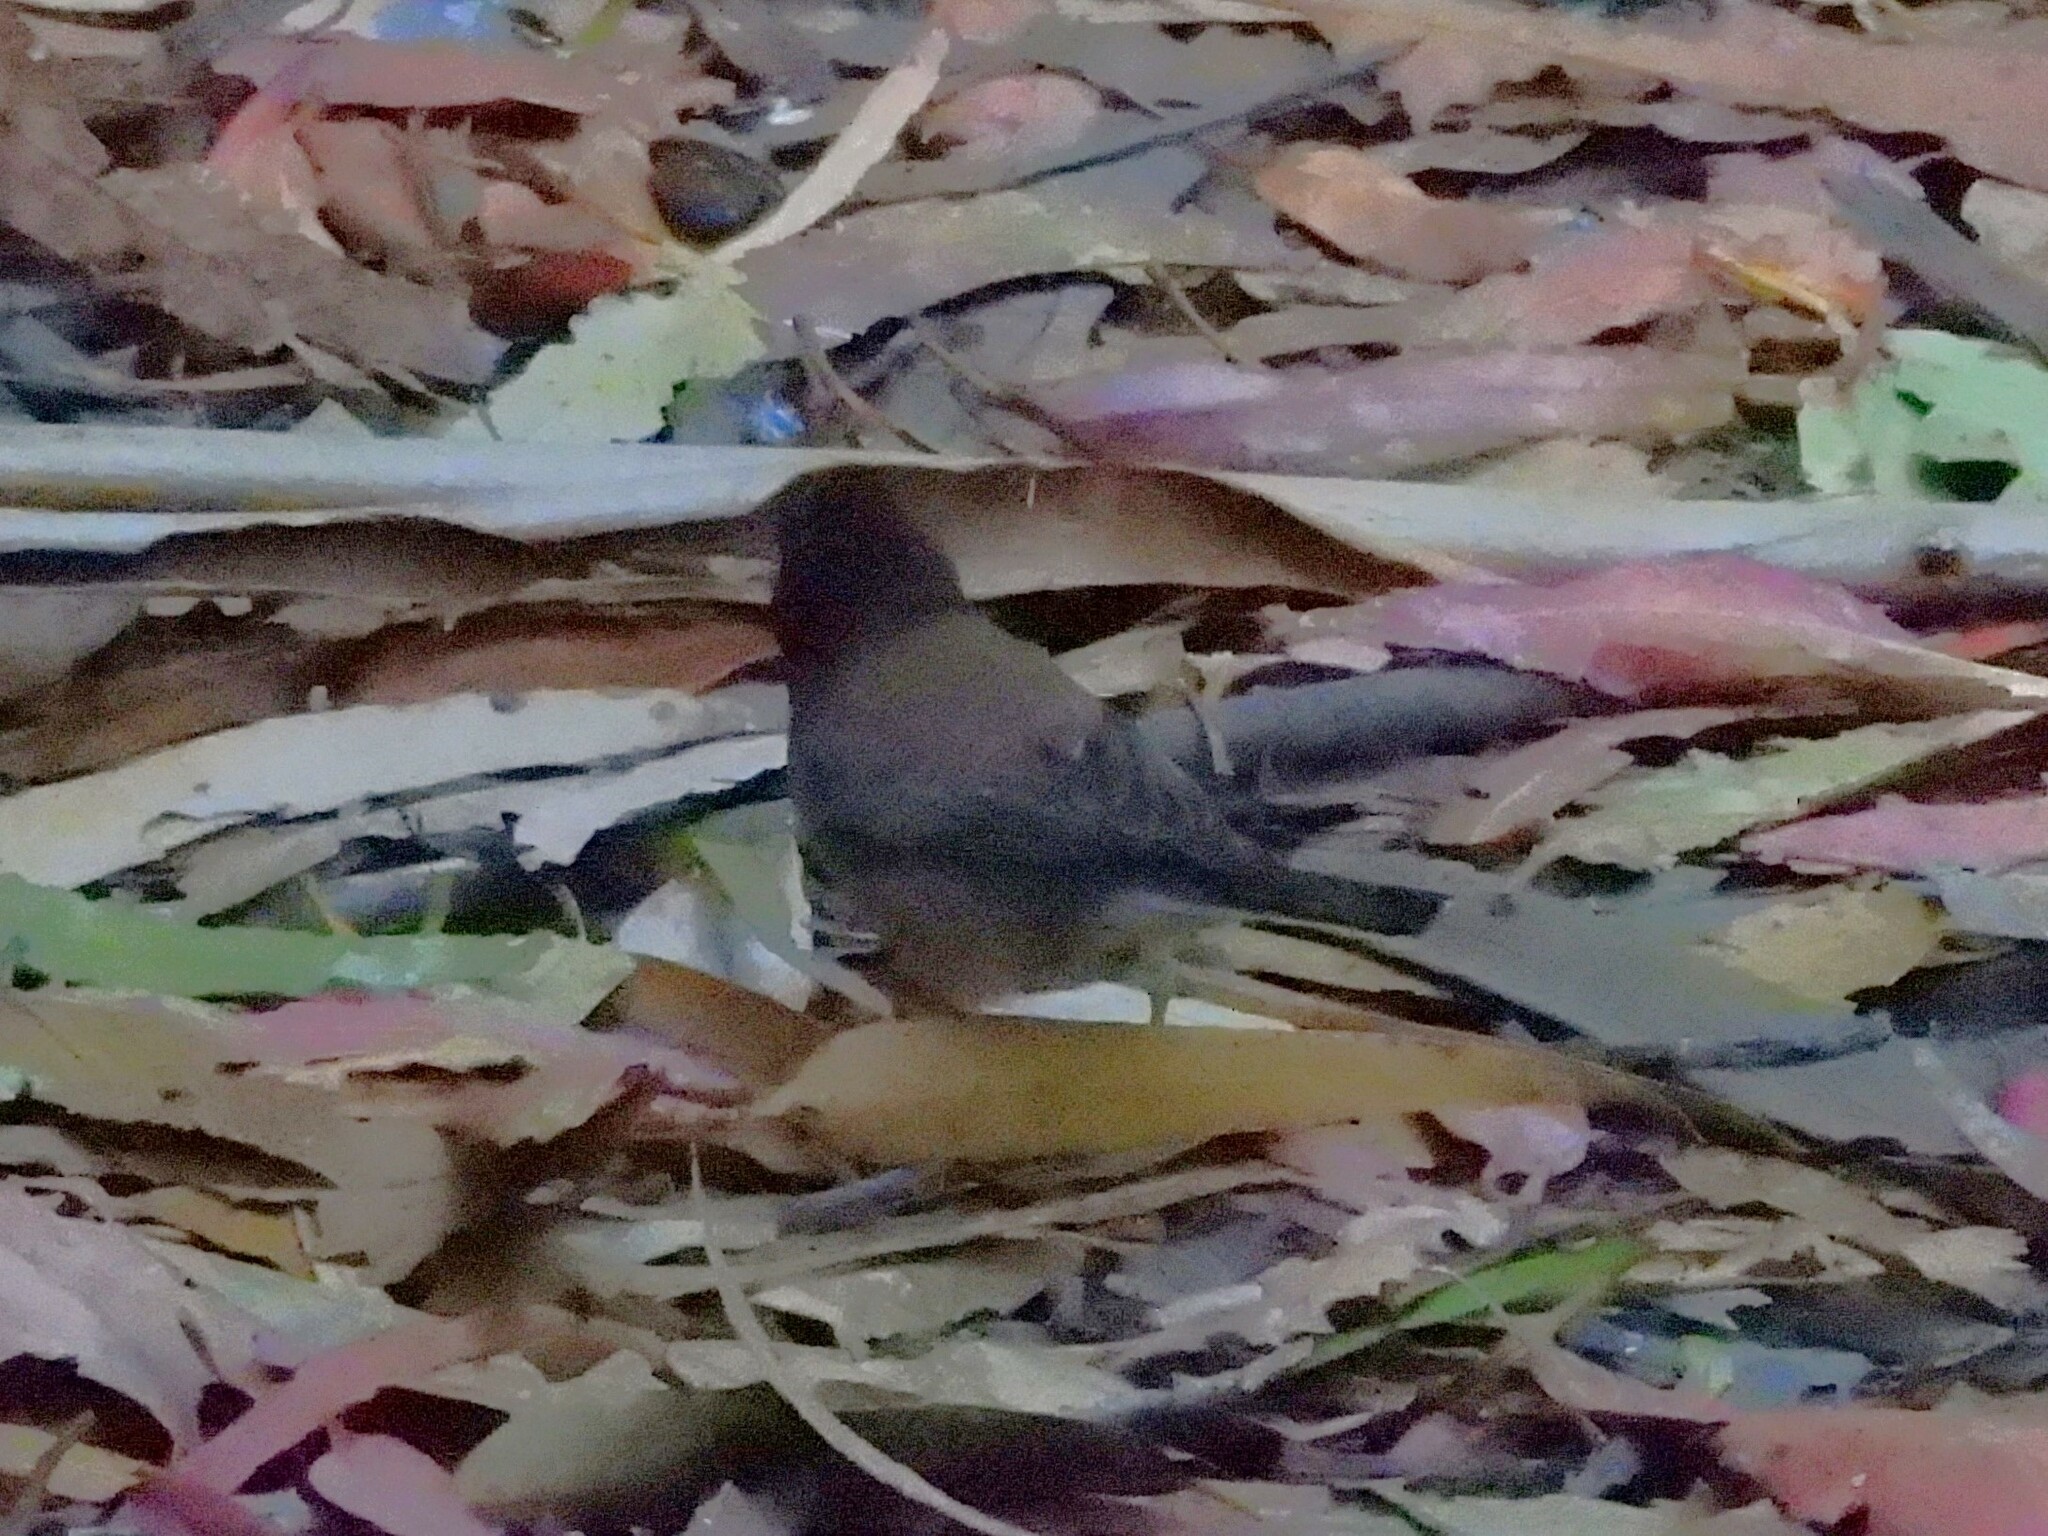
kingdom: Animalia
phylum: Chordata
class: Aves
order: Passeriformes
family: Passerellidae
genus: Junco
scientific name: Junco hyemalis
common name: Dark-eyed junco
